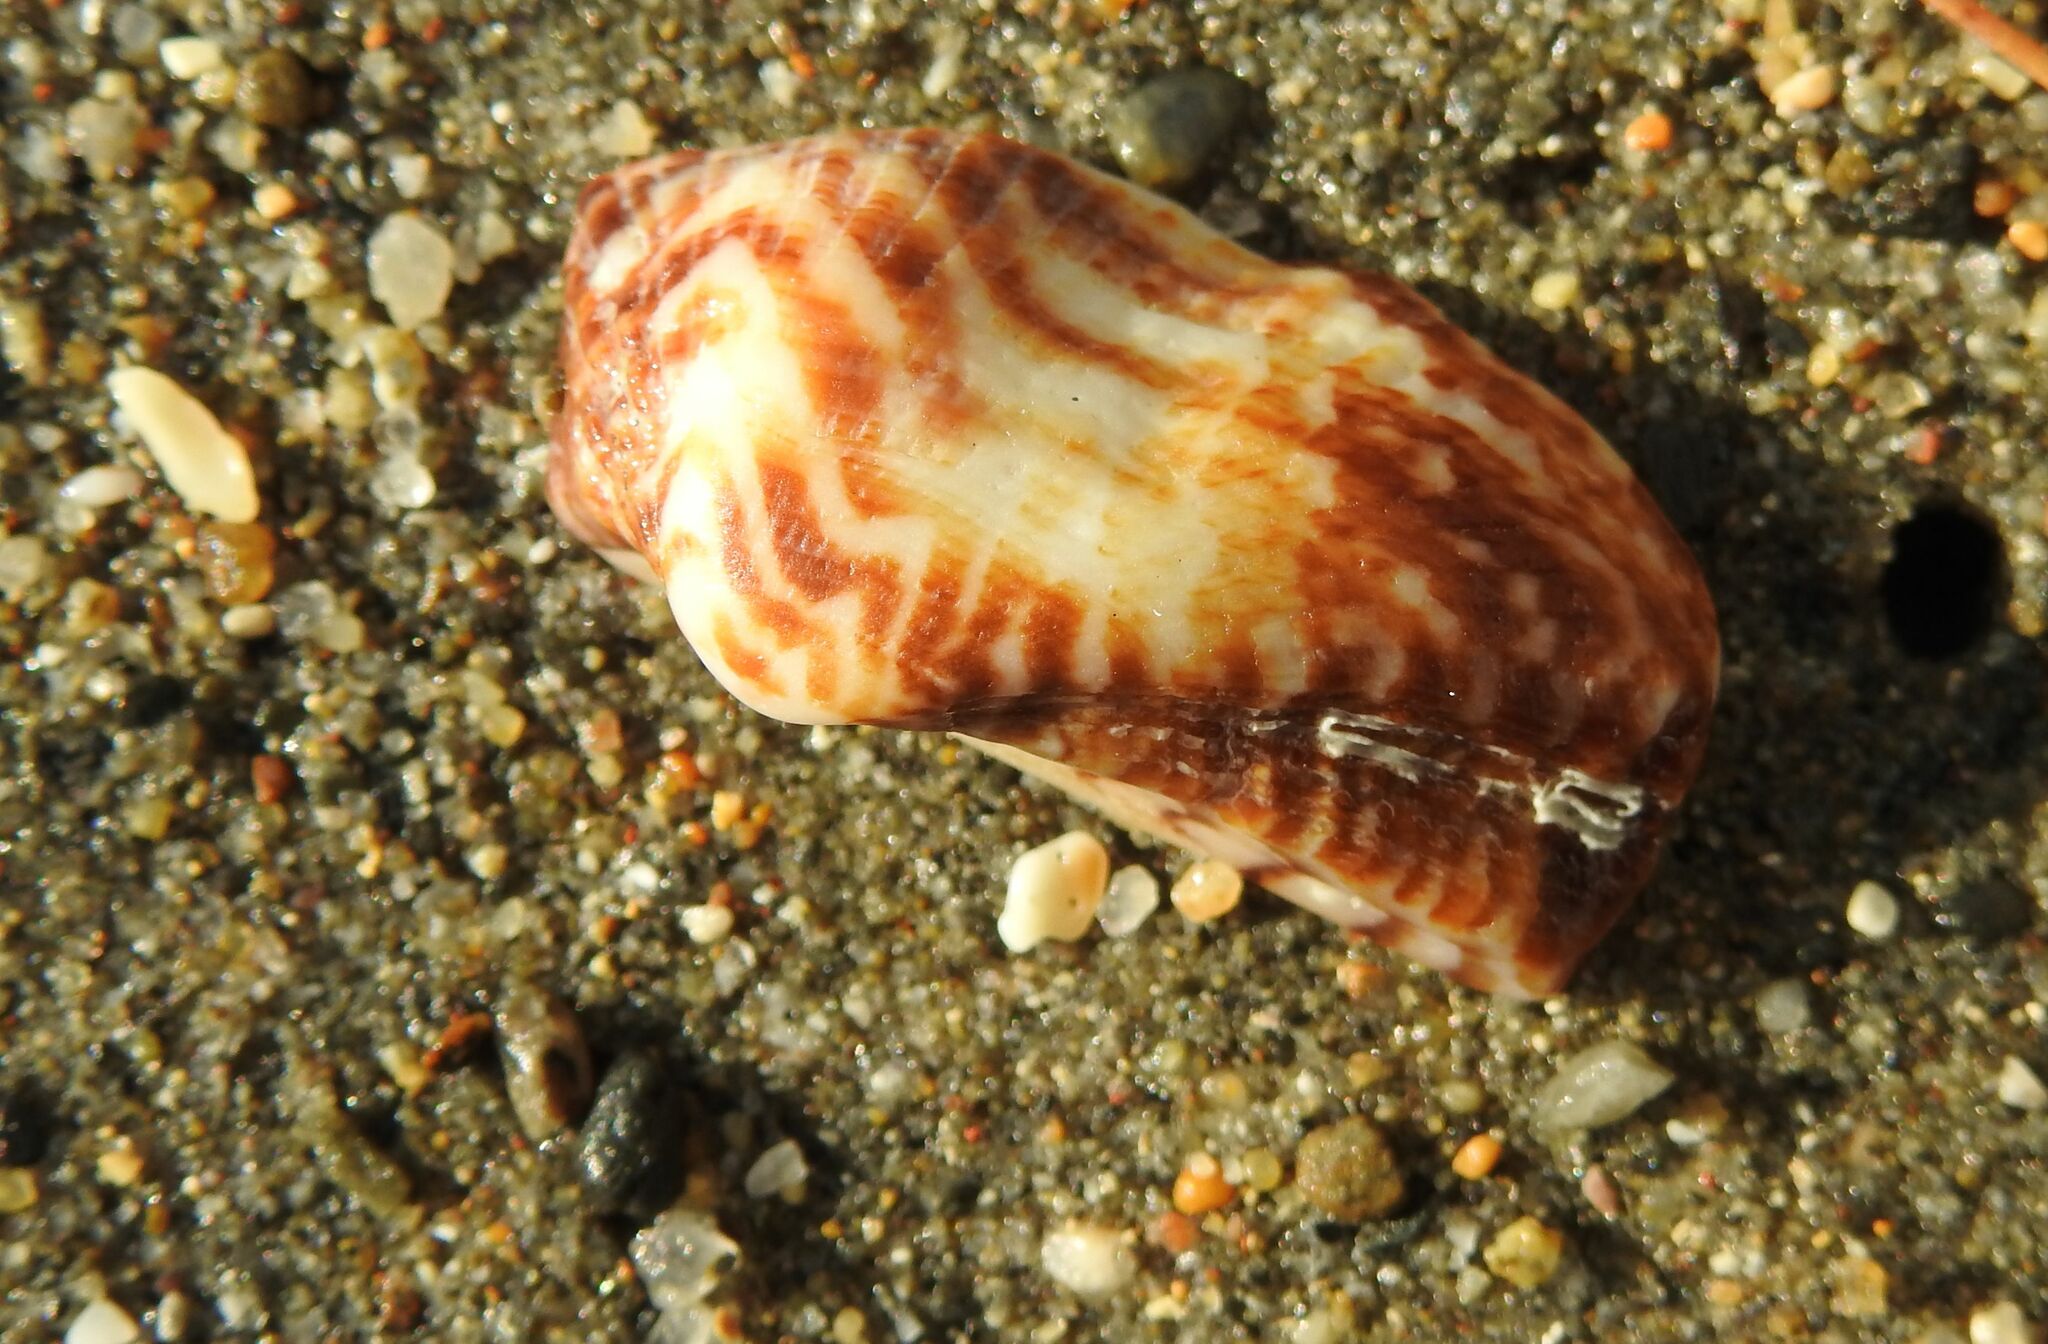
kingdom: Animalia
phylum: Mollusca
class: Bivalvia
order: Arcida
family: Arcidae
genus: Arca
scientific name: Arca noae
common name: Noah's arch
